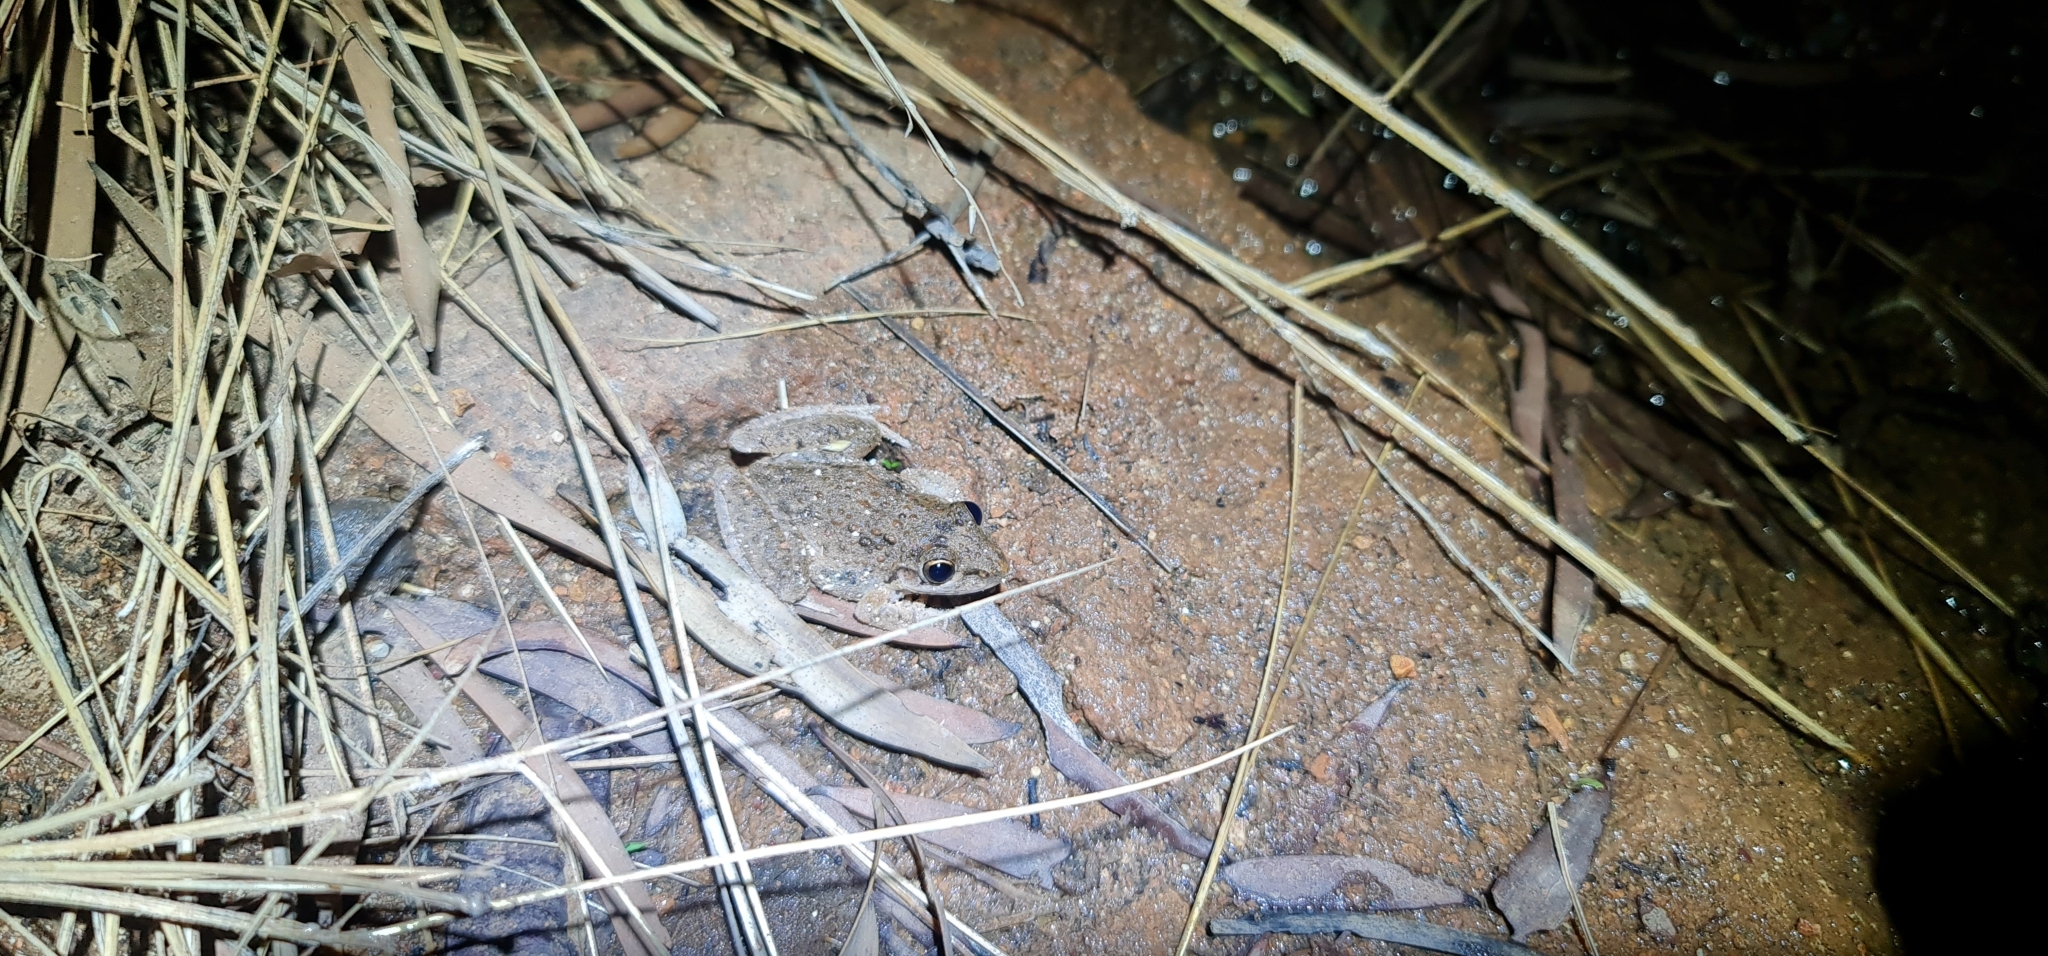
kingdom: Animalia
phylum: Chordata
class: Amphibia
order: Anura
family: Pelodryadidae
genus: Litoria
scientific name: Litoria inermis
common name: Bumpy rocket frog
